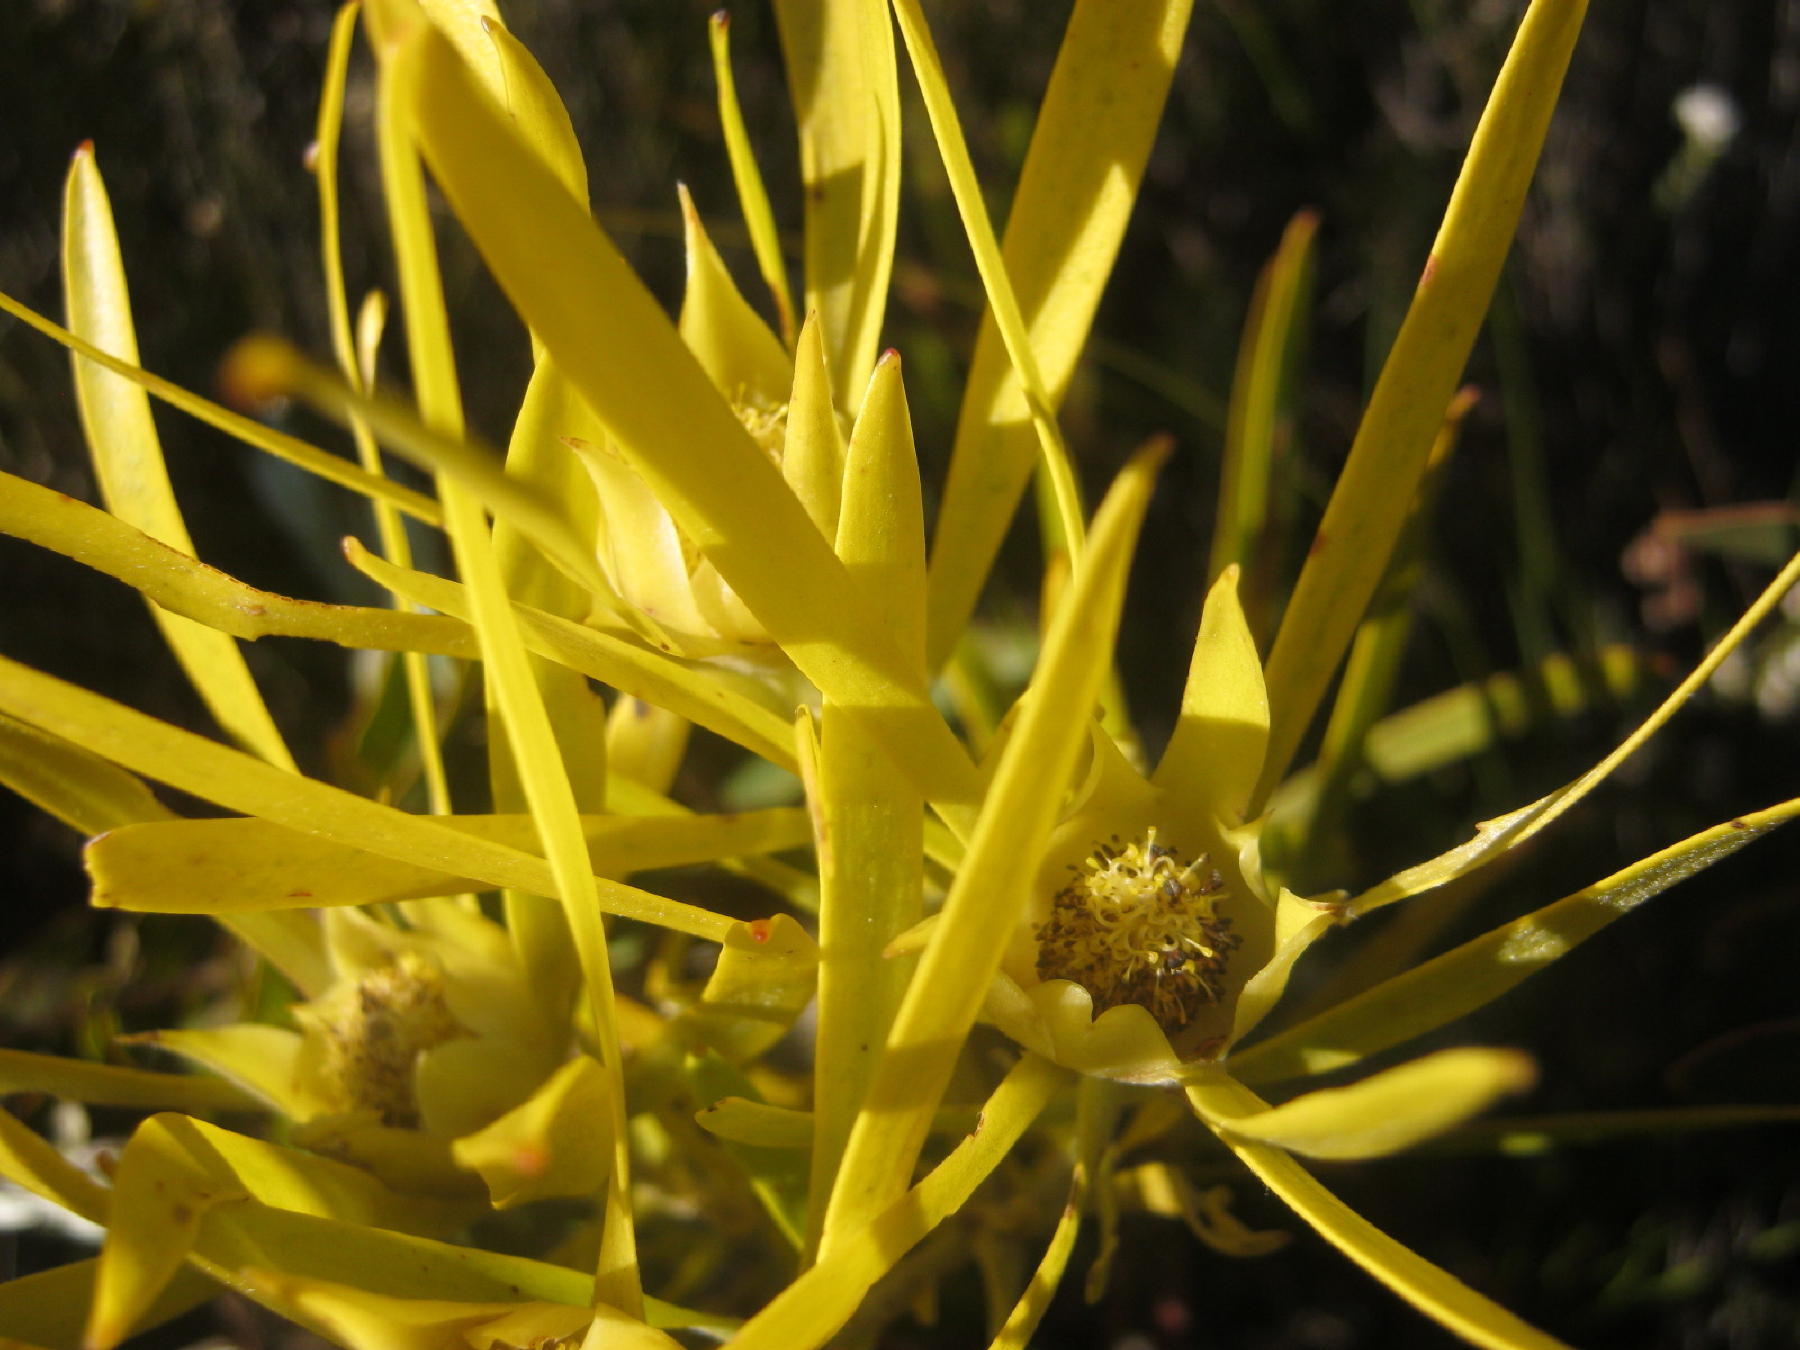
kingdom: Plantae
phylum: Tracheophyta
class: Magnoliopsida
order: Proteales
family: Proteaceae
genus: Leucadendron
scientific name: Leucadendron eucalyptifolium
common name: Gum-leaved conebush
